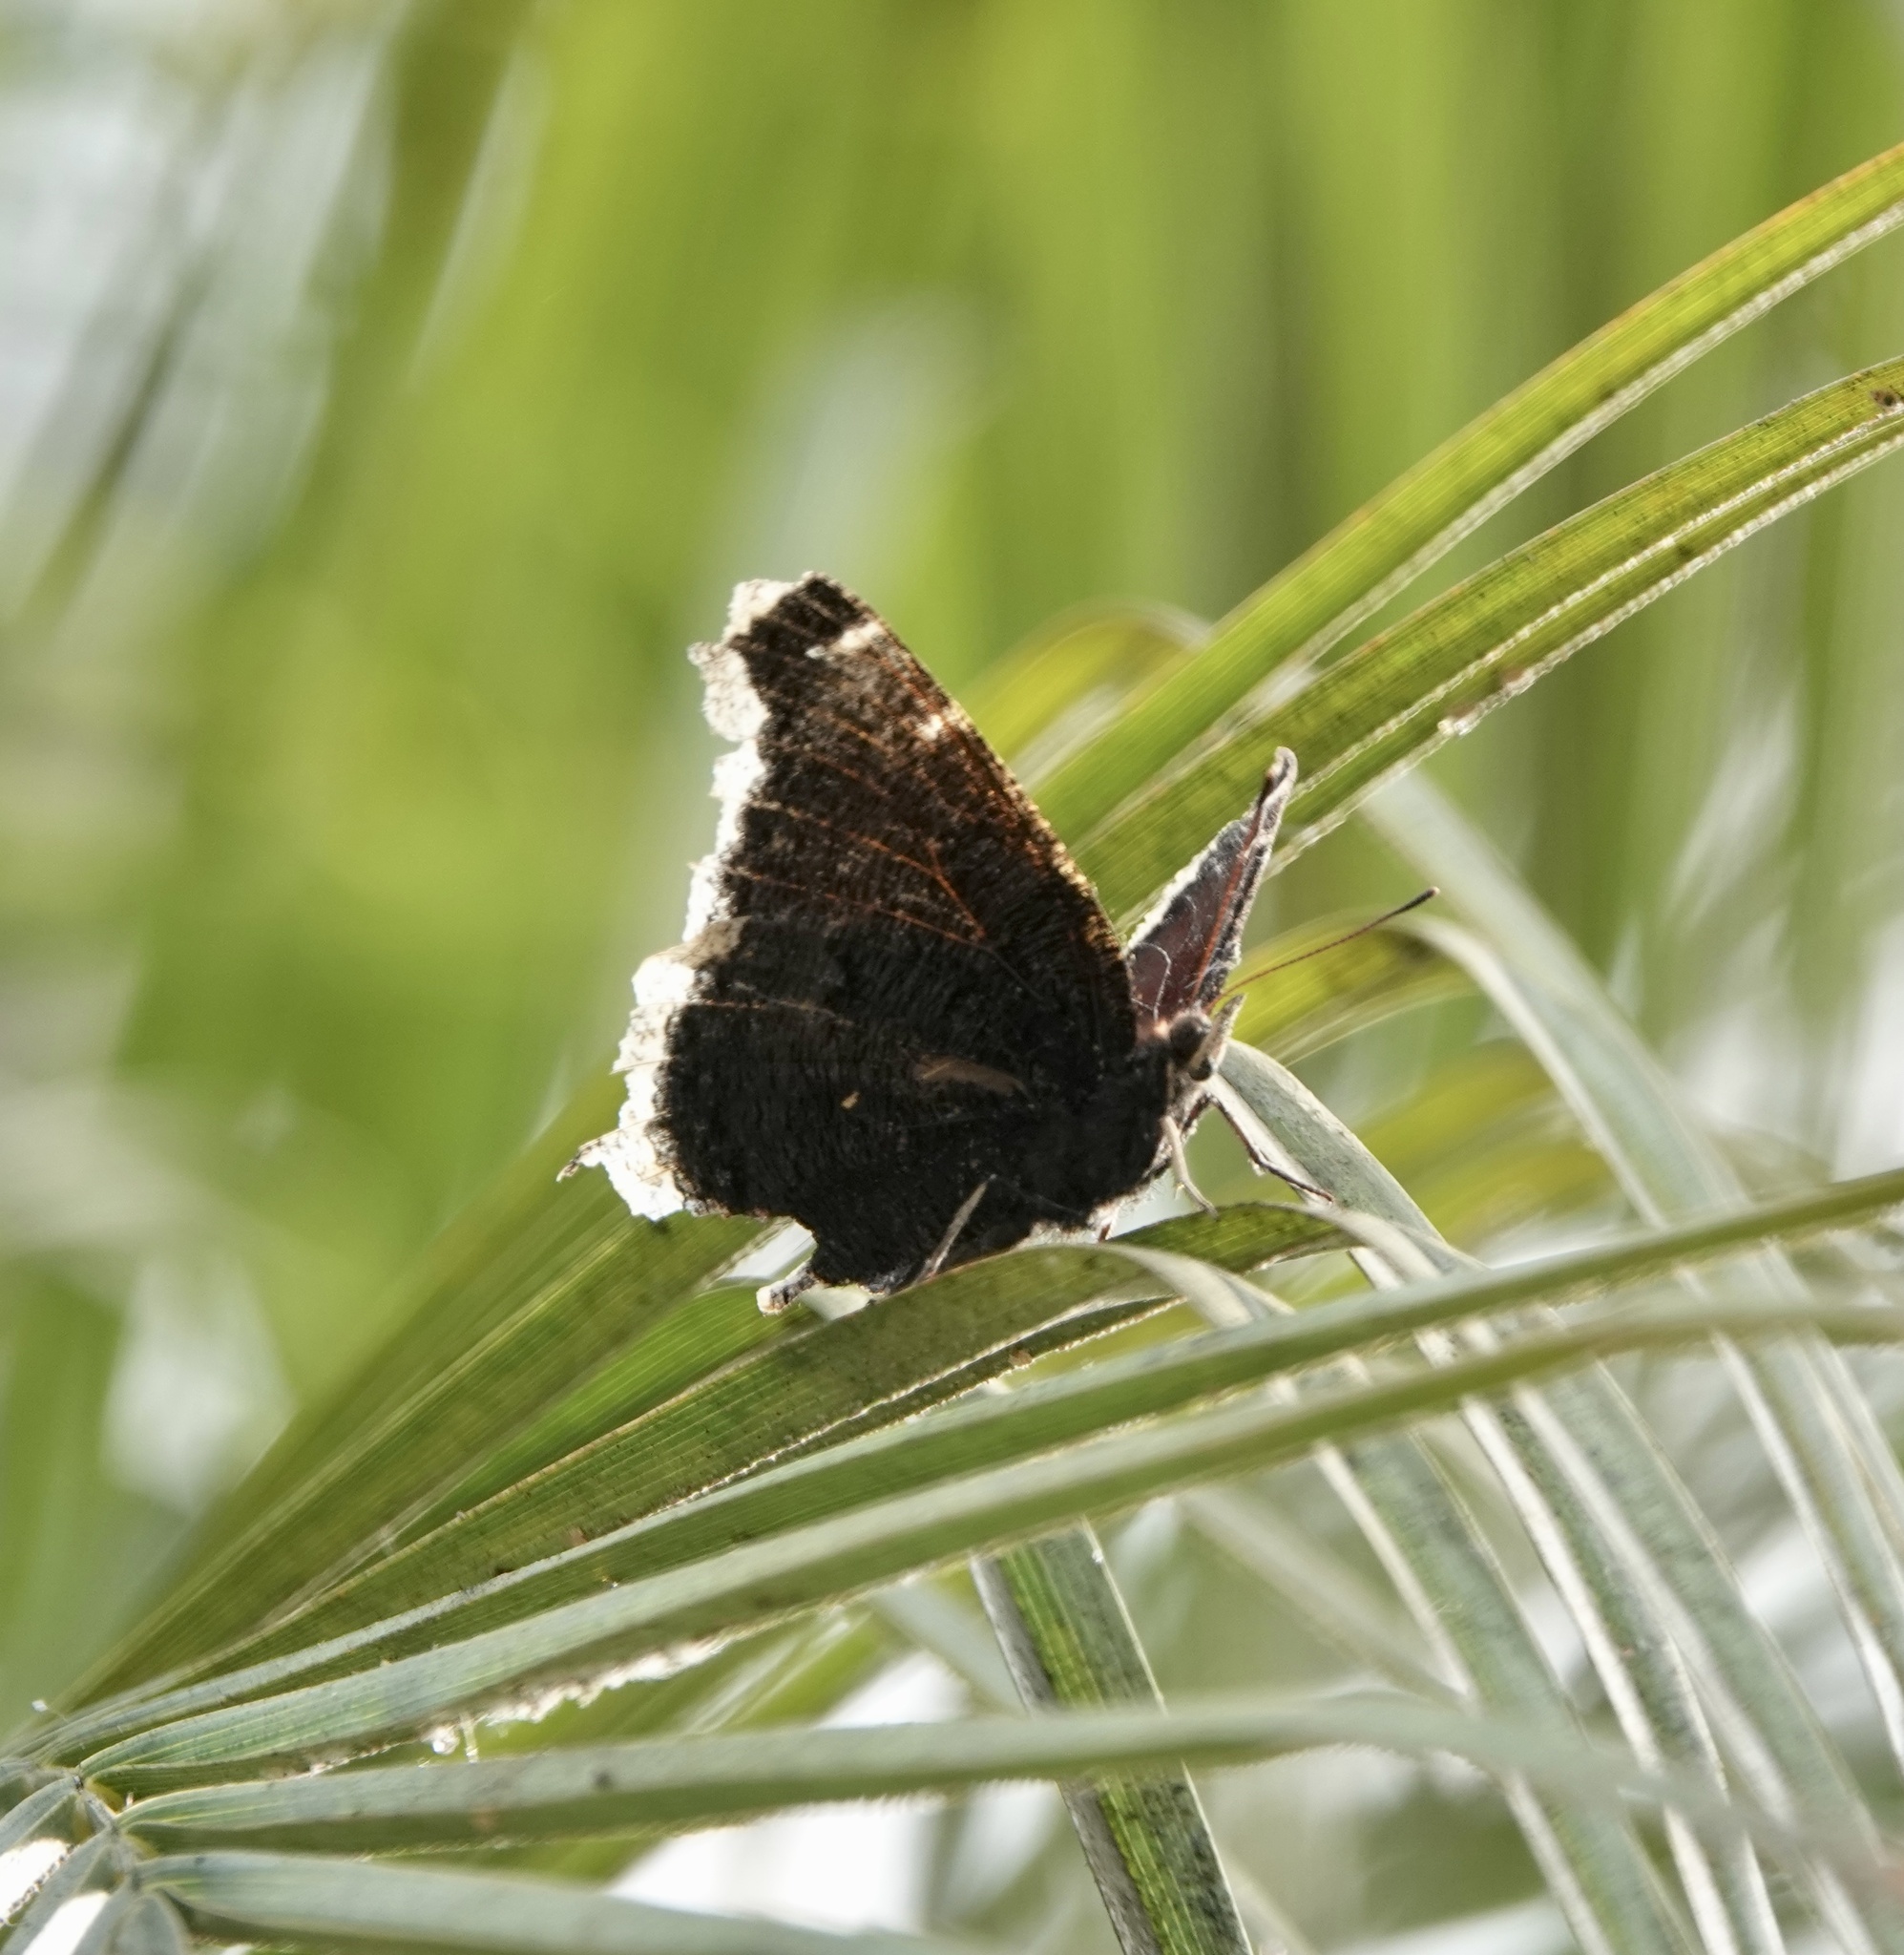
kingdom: Animalia
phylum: Arthropoda
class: Insecta
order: Lepidoptera
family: Nymphalidae
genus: Nymphalis
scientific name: Nymphalis antiopa
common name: Camberwell beauty
